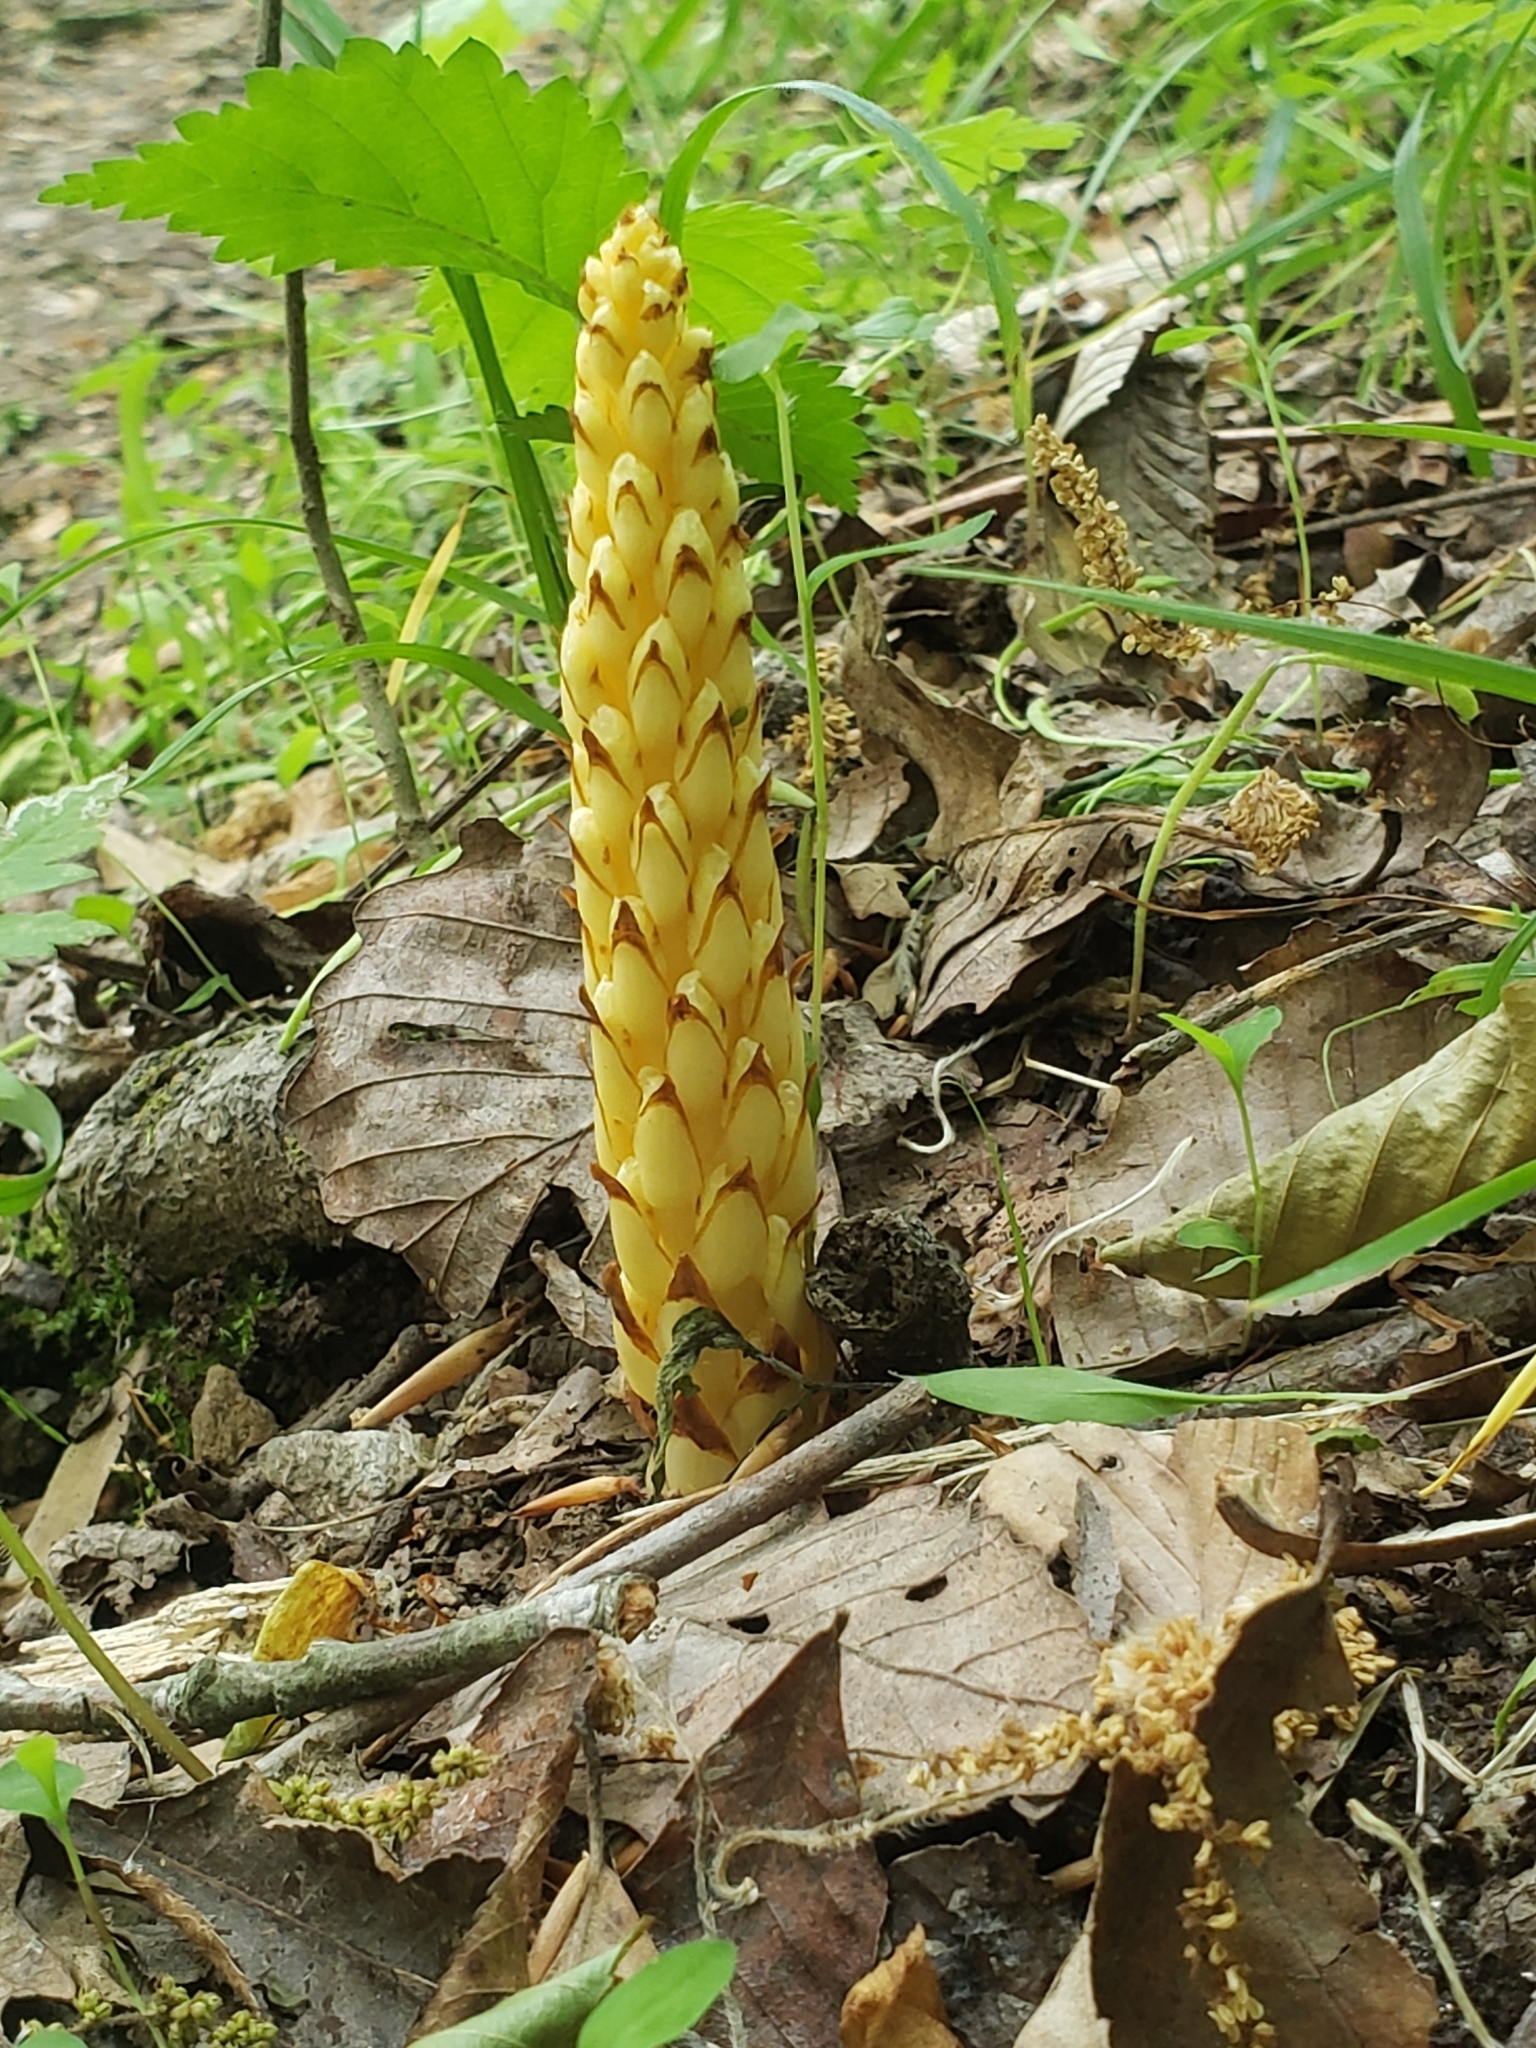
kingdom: Plantae
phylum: Tracheophyta
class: Magnoliopsida
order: Lamiales
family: Orobanchaceae
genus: Conopholis
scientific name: Conopholis americana
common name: American cancer-root
